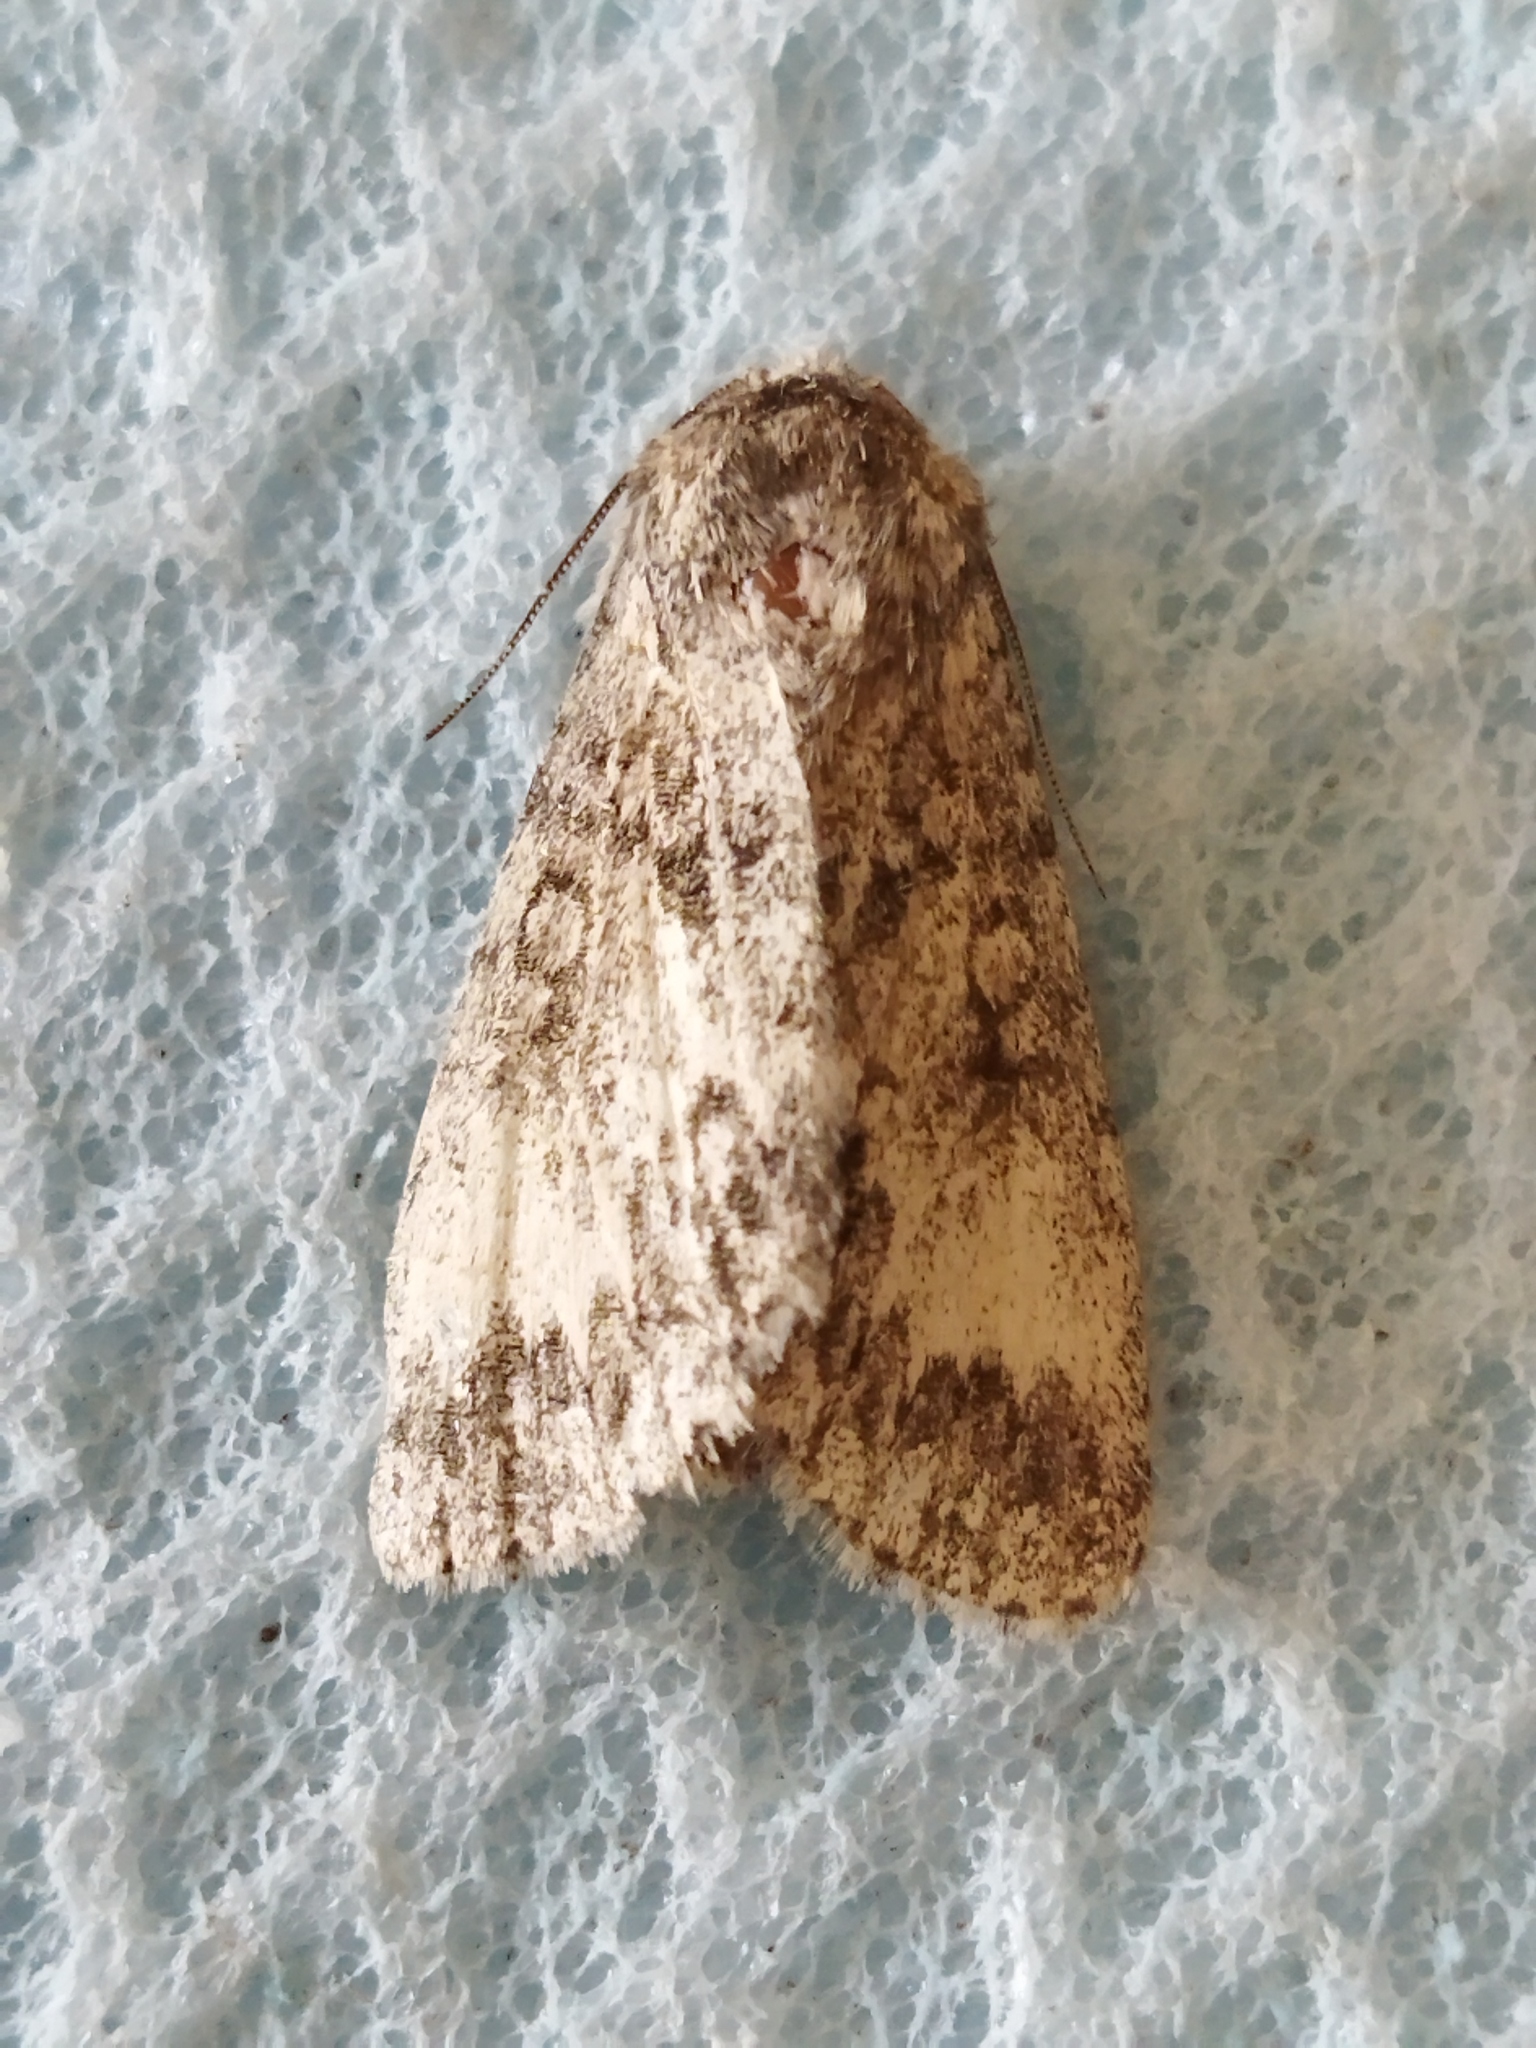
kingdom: Animalia
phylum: Arthropoda
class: Insecta
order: Lepidoptera
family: Noctuidae
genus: Acronicta
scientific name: Acronicta megacephala
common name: Poplar grey
